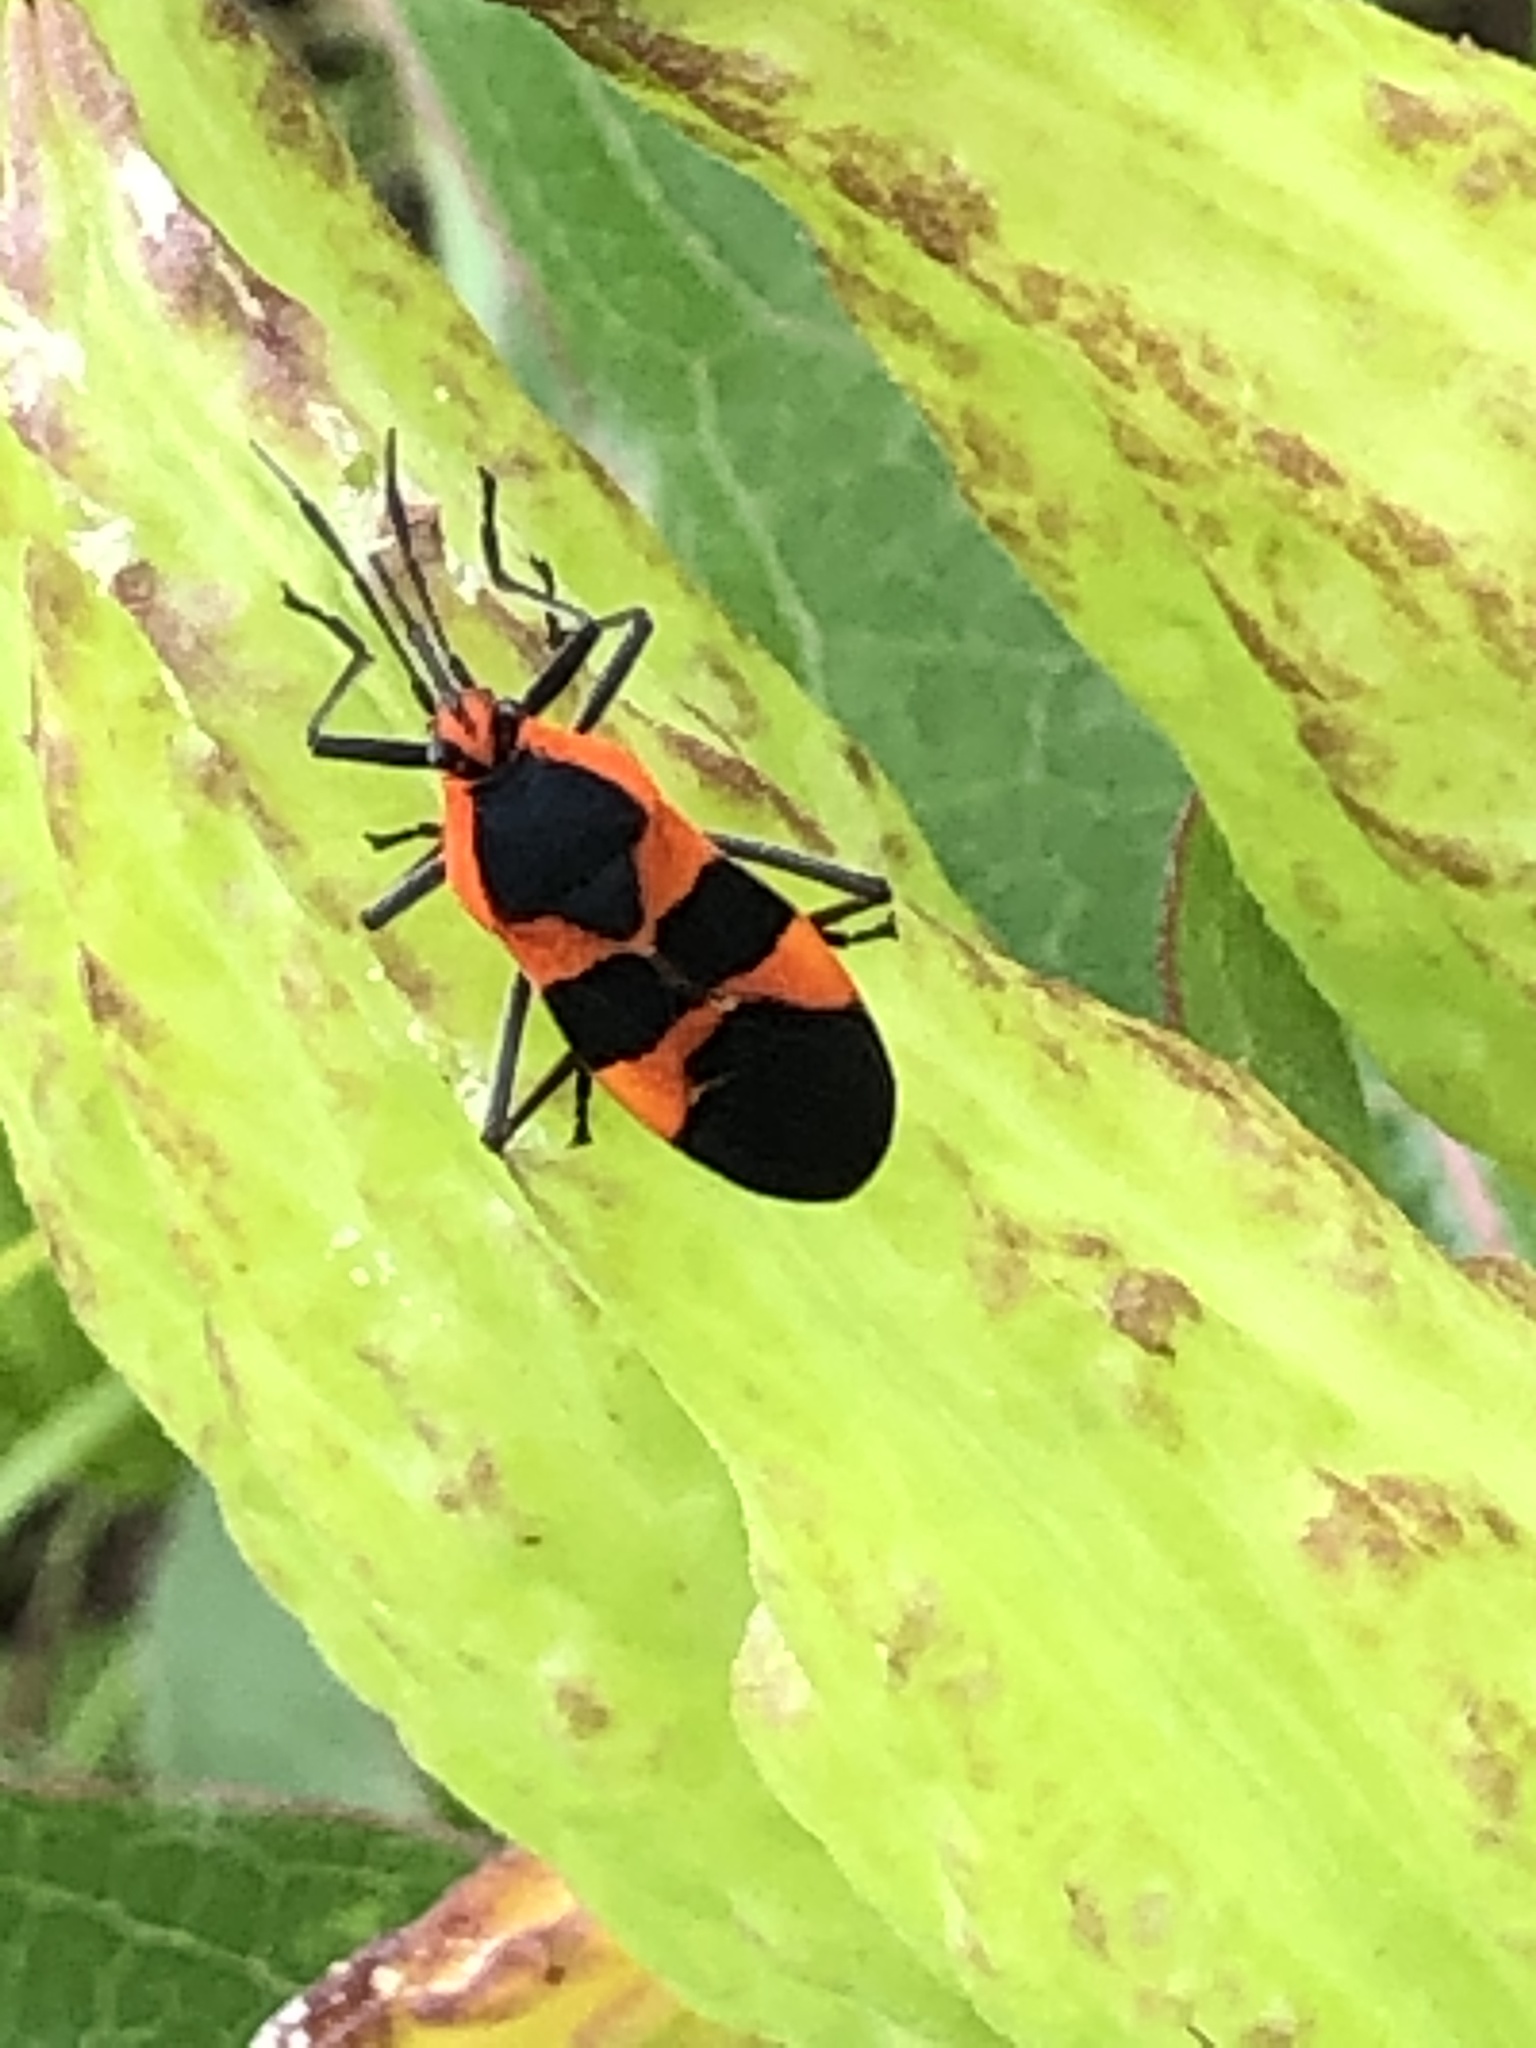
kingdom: Animalia
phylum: Arthropoda
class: Insecta
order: Hemiptera
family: Lygaeidae
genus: Oncopeltus
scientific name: Oncopeltus fasciatus
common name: Large milkweed bug
